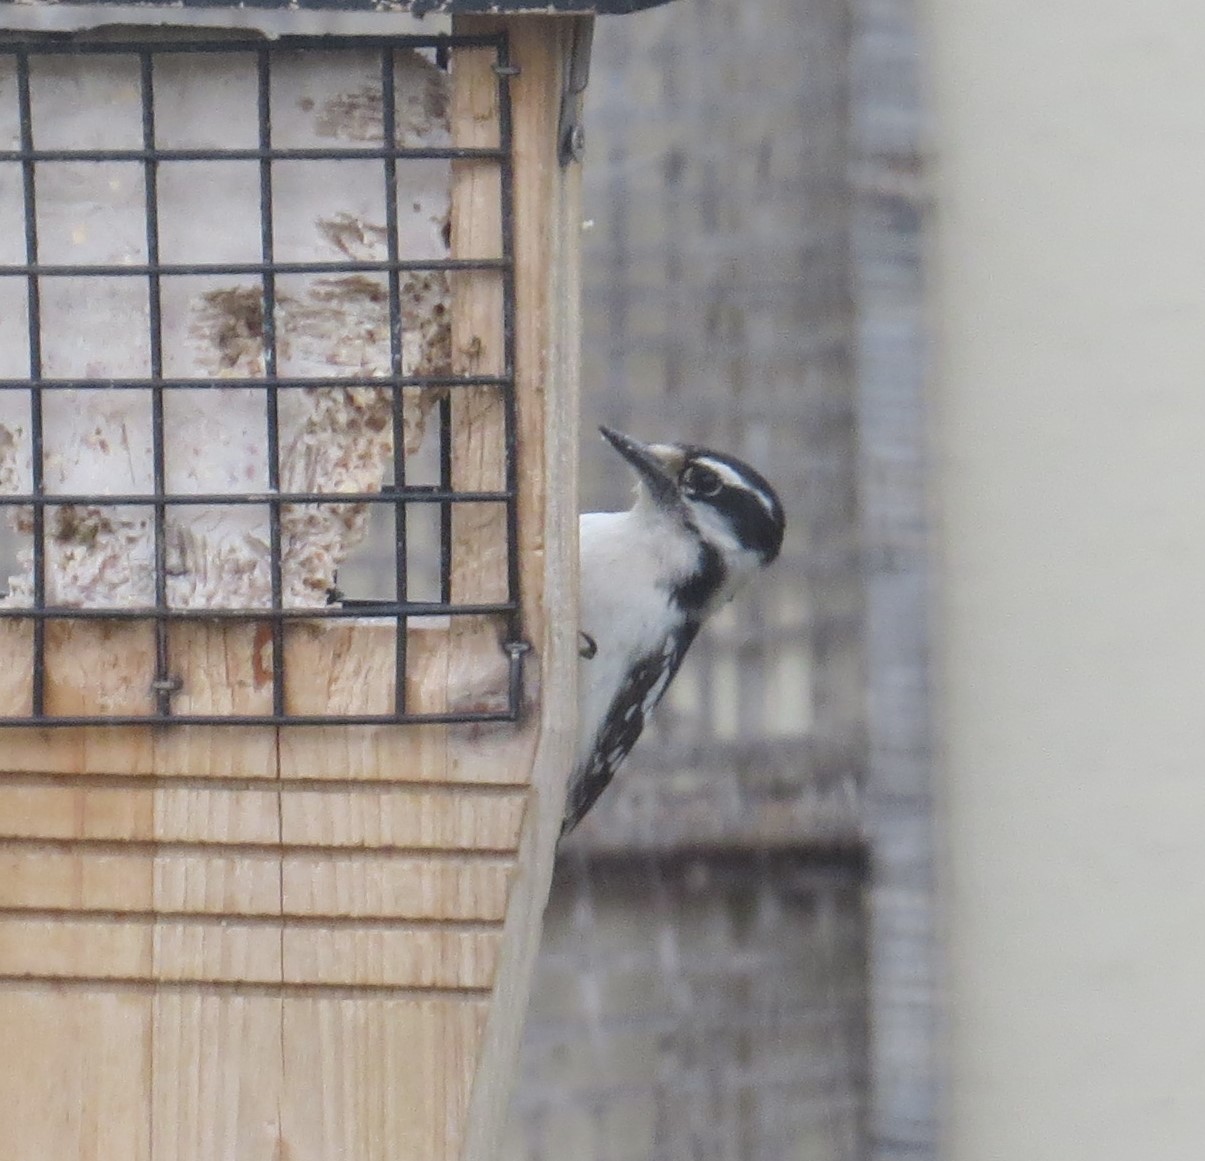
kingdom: Animalia
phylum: Chordata
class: Aves
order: Piciformes
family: Picidae
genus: Dryobates
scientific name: Dryobates pubescens
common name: Downy woodpecker
